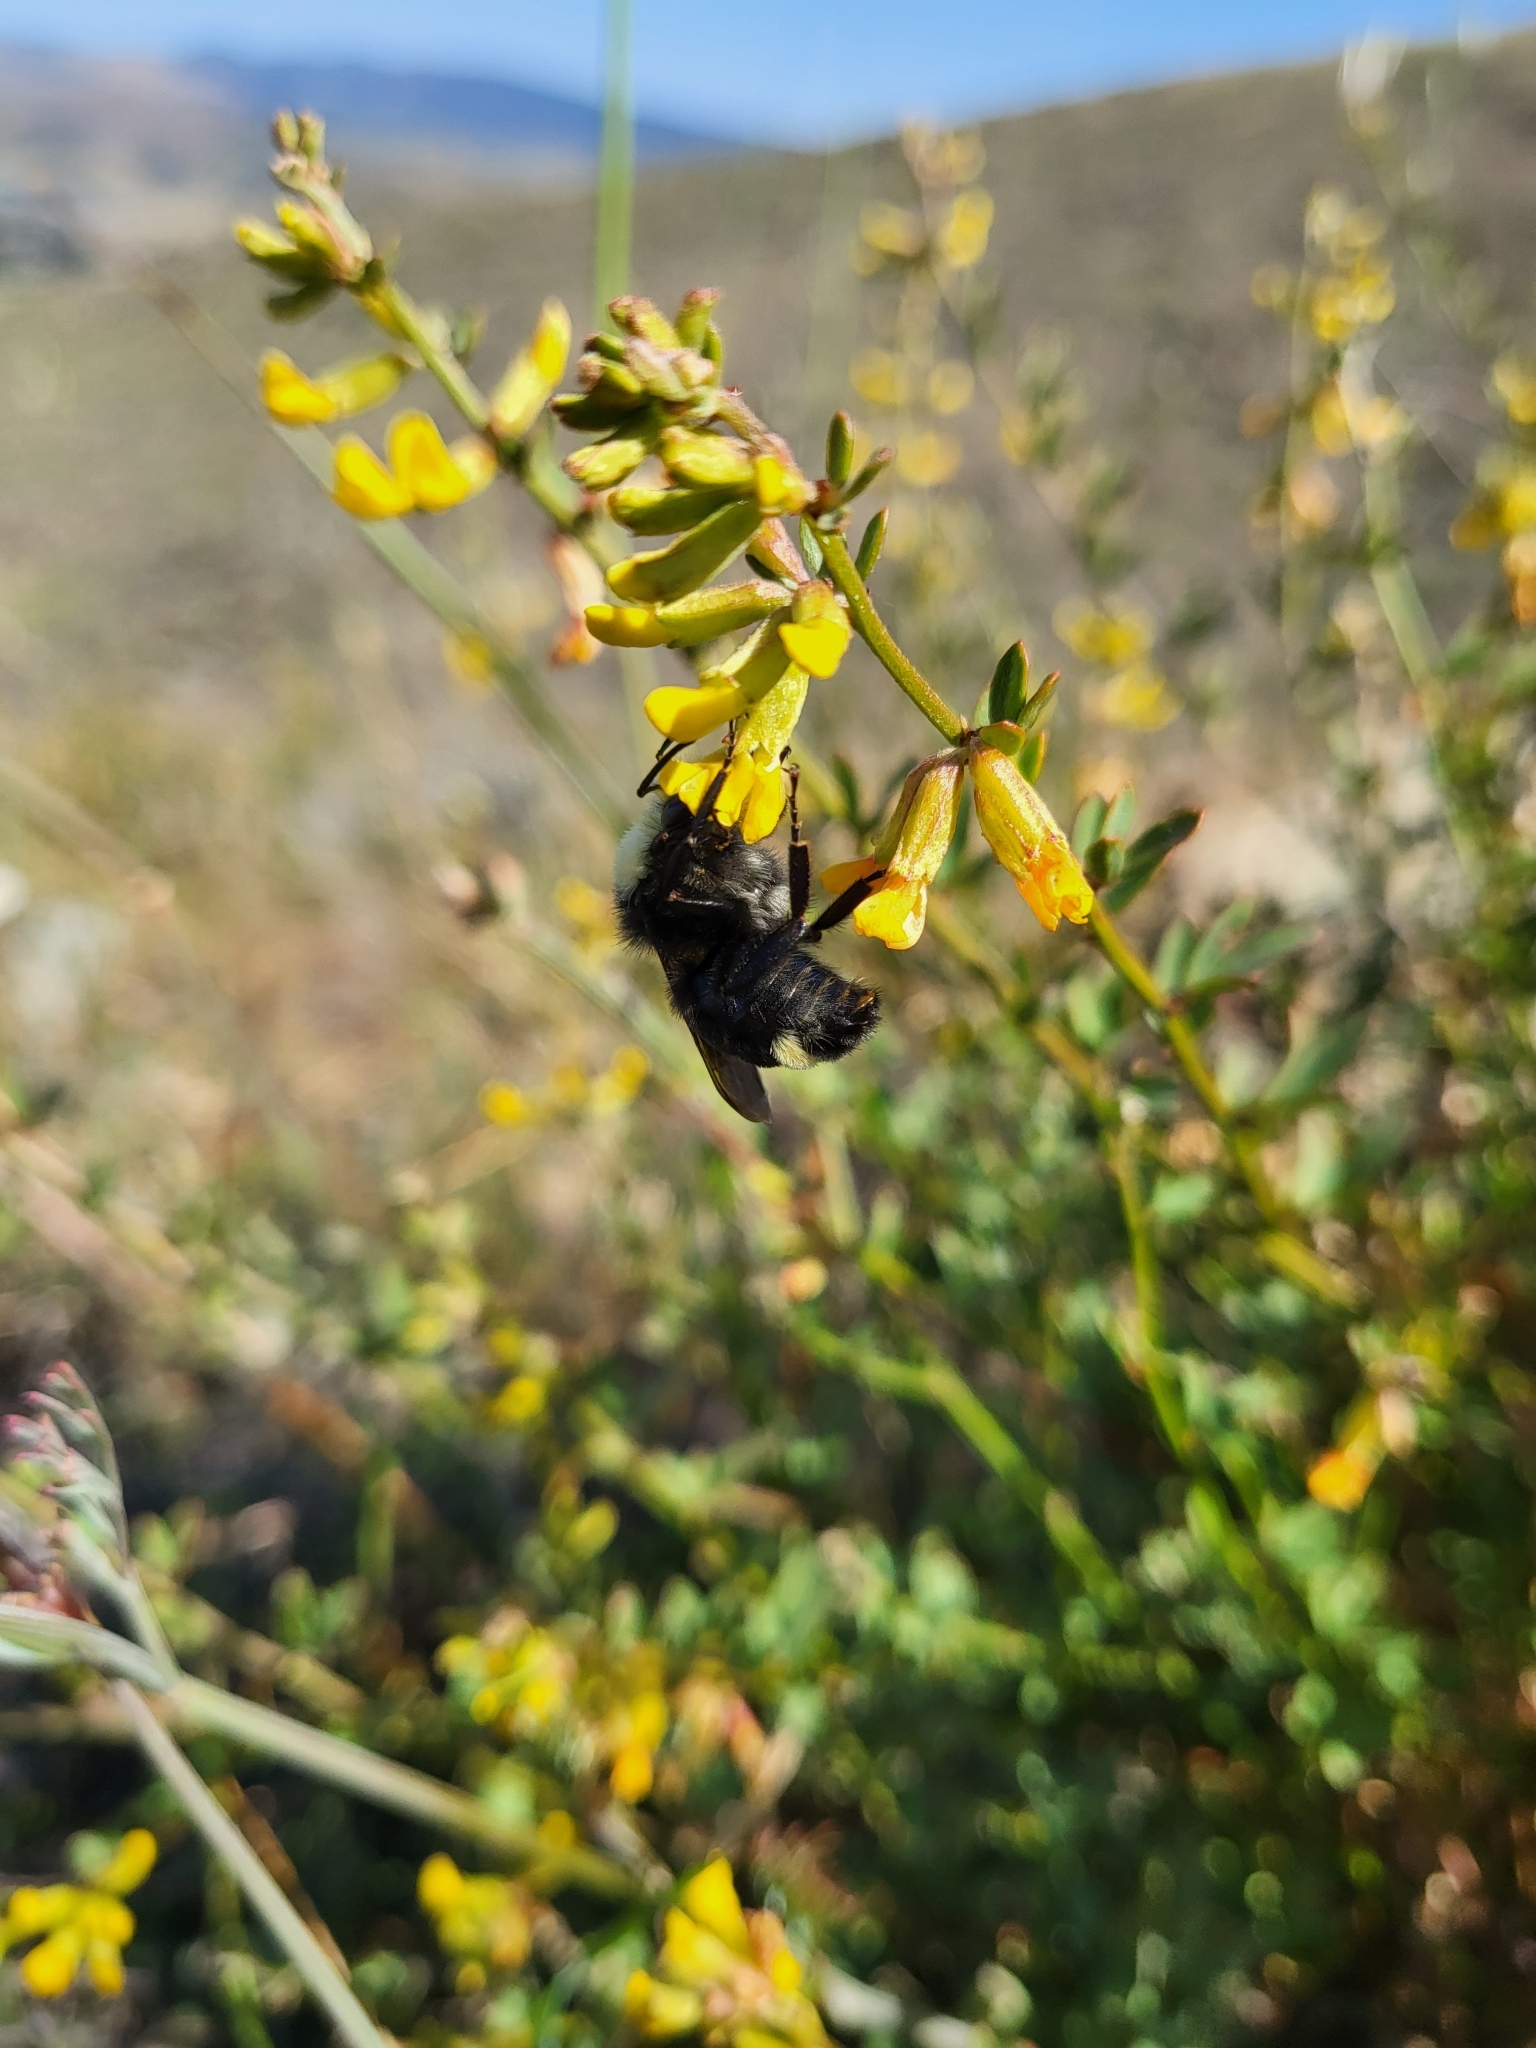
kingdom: Plantae
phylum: Tracheophyta
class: Magnoliopsida
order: Fabales
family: Fabaceae
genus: Acmispon
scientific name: Acmispon glaber
